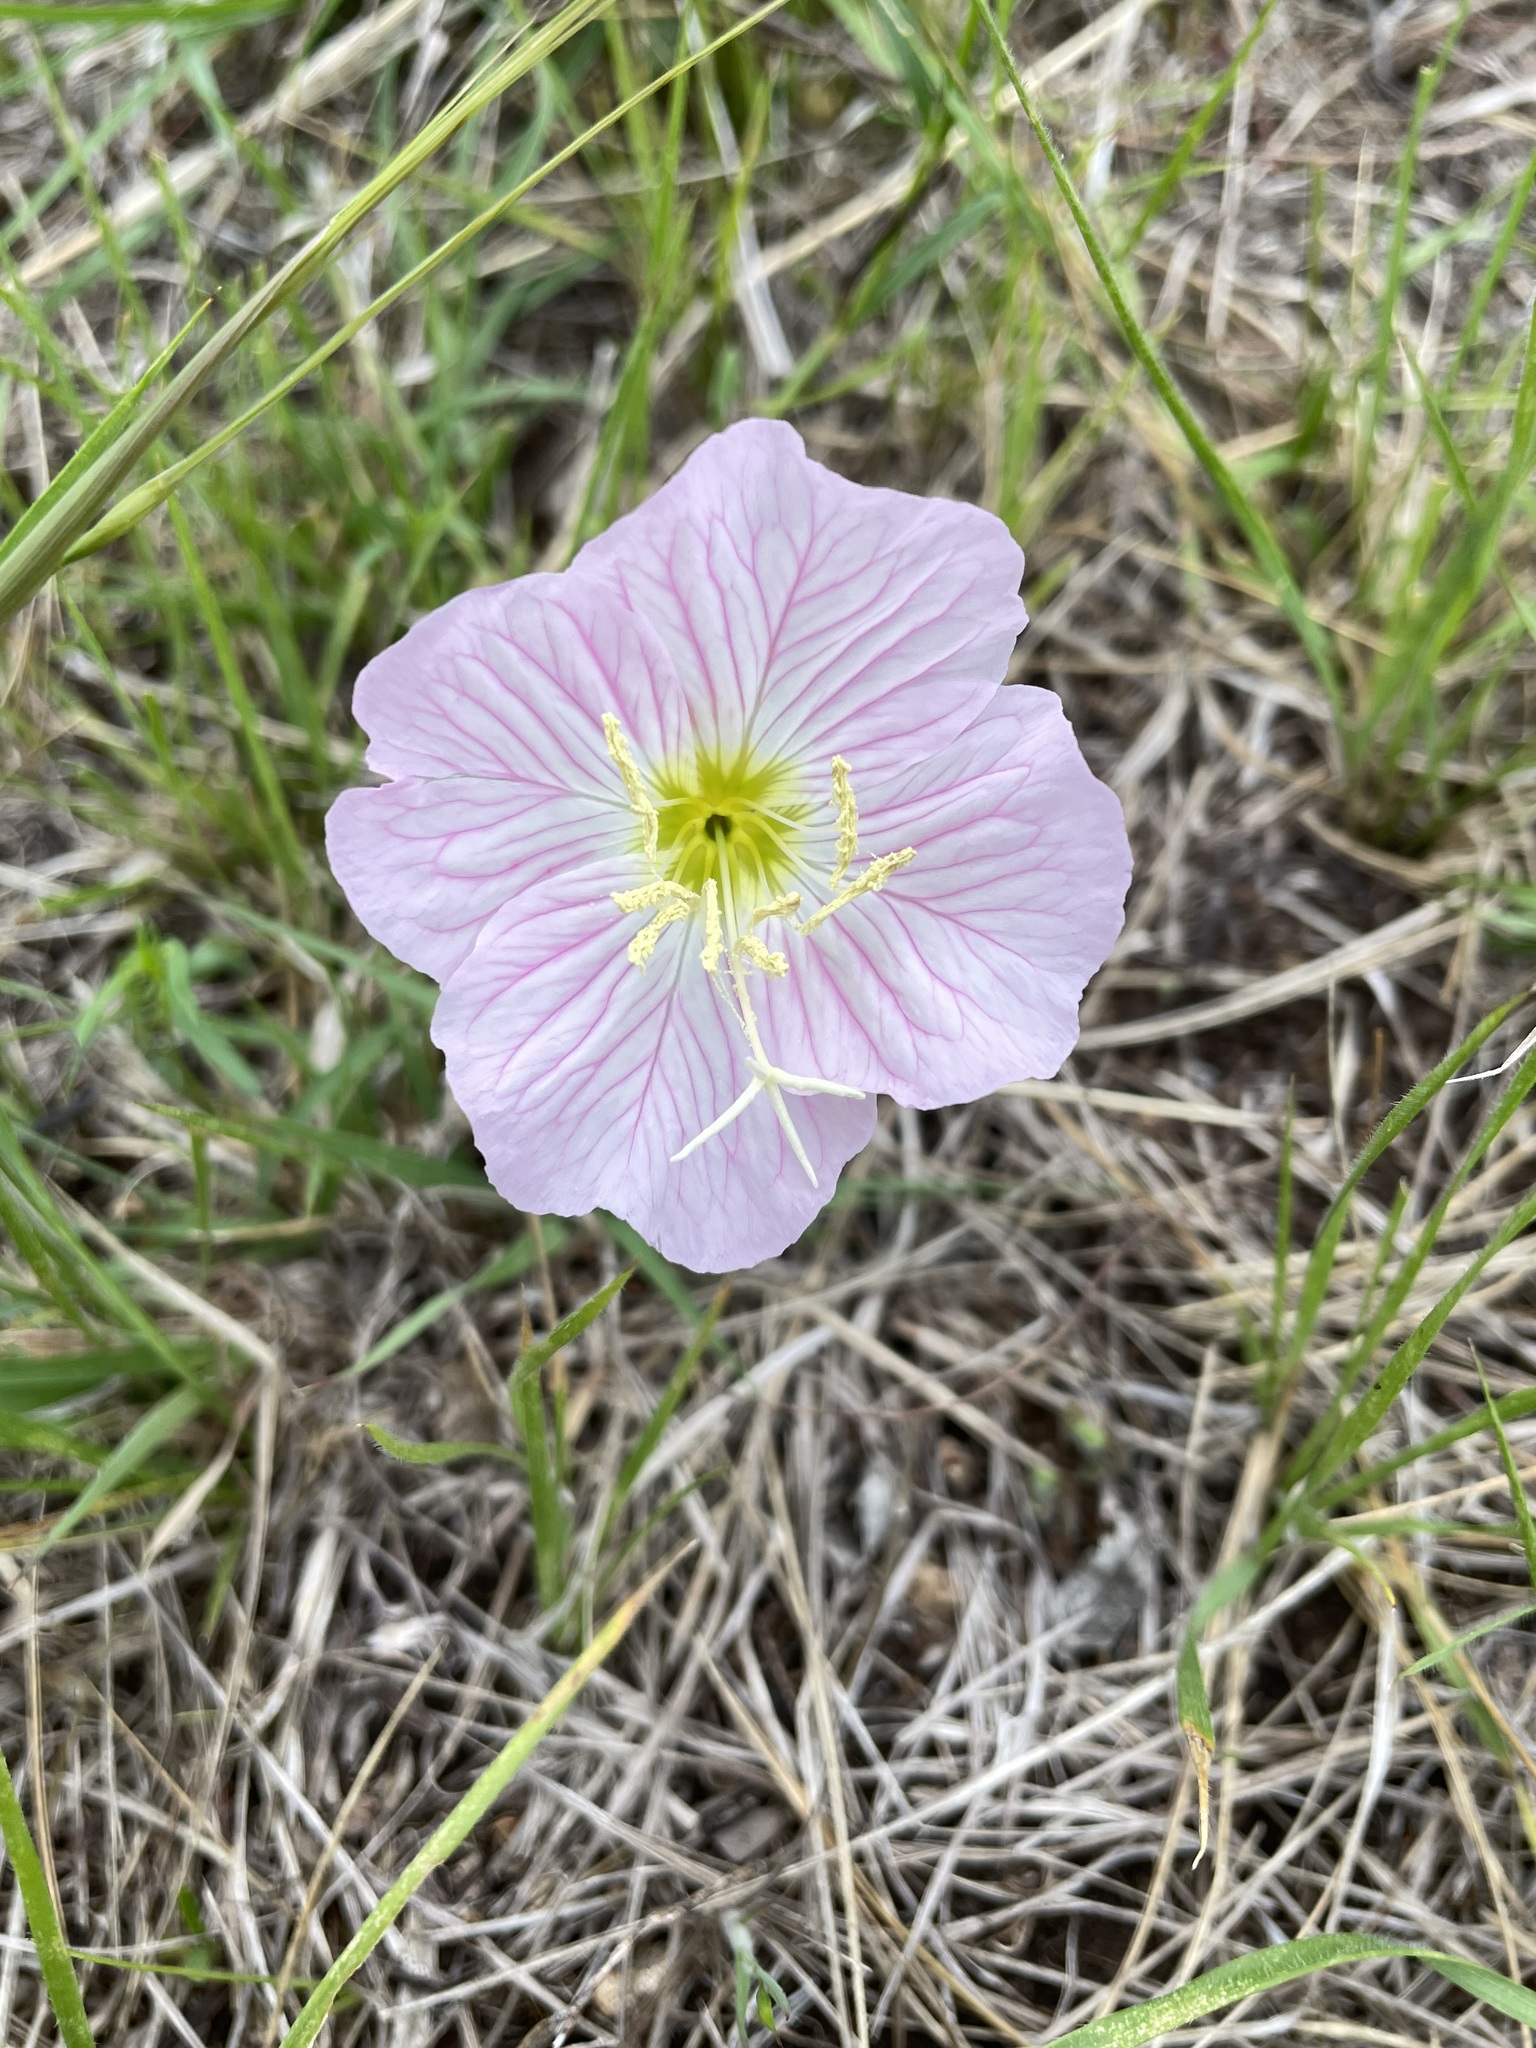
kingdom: Plantae
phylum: Tracheophyta
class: Magnoliopsida
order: Myrtales
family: Onagraceae
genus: Oenothera
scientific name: Oenothera speciosa
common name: White evening-primrose
